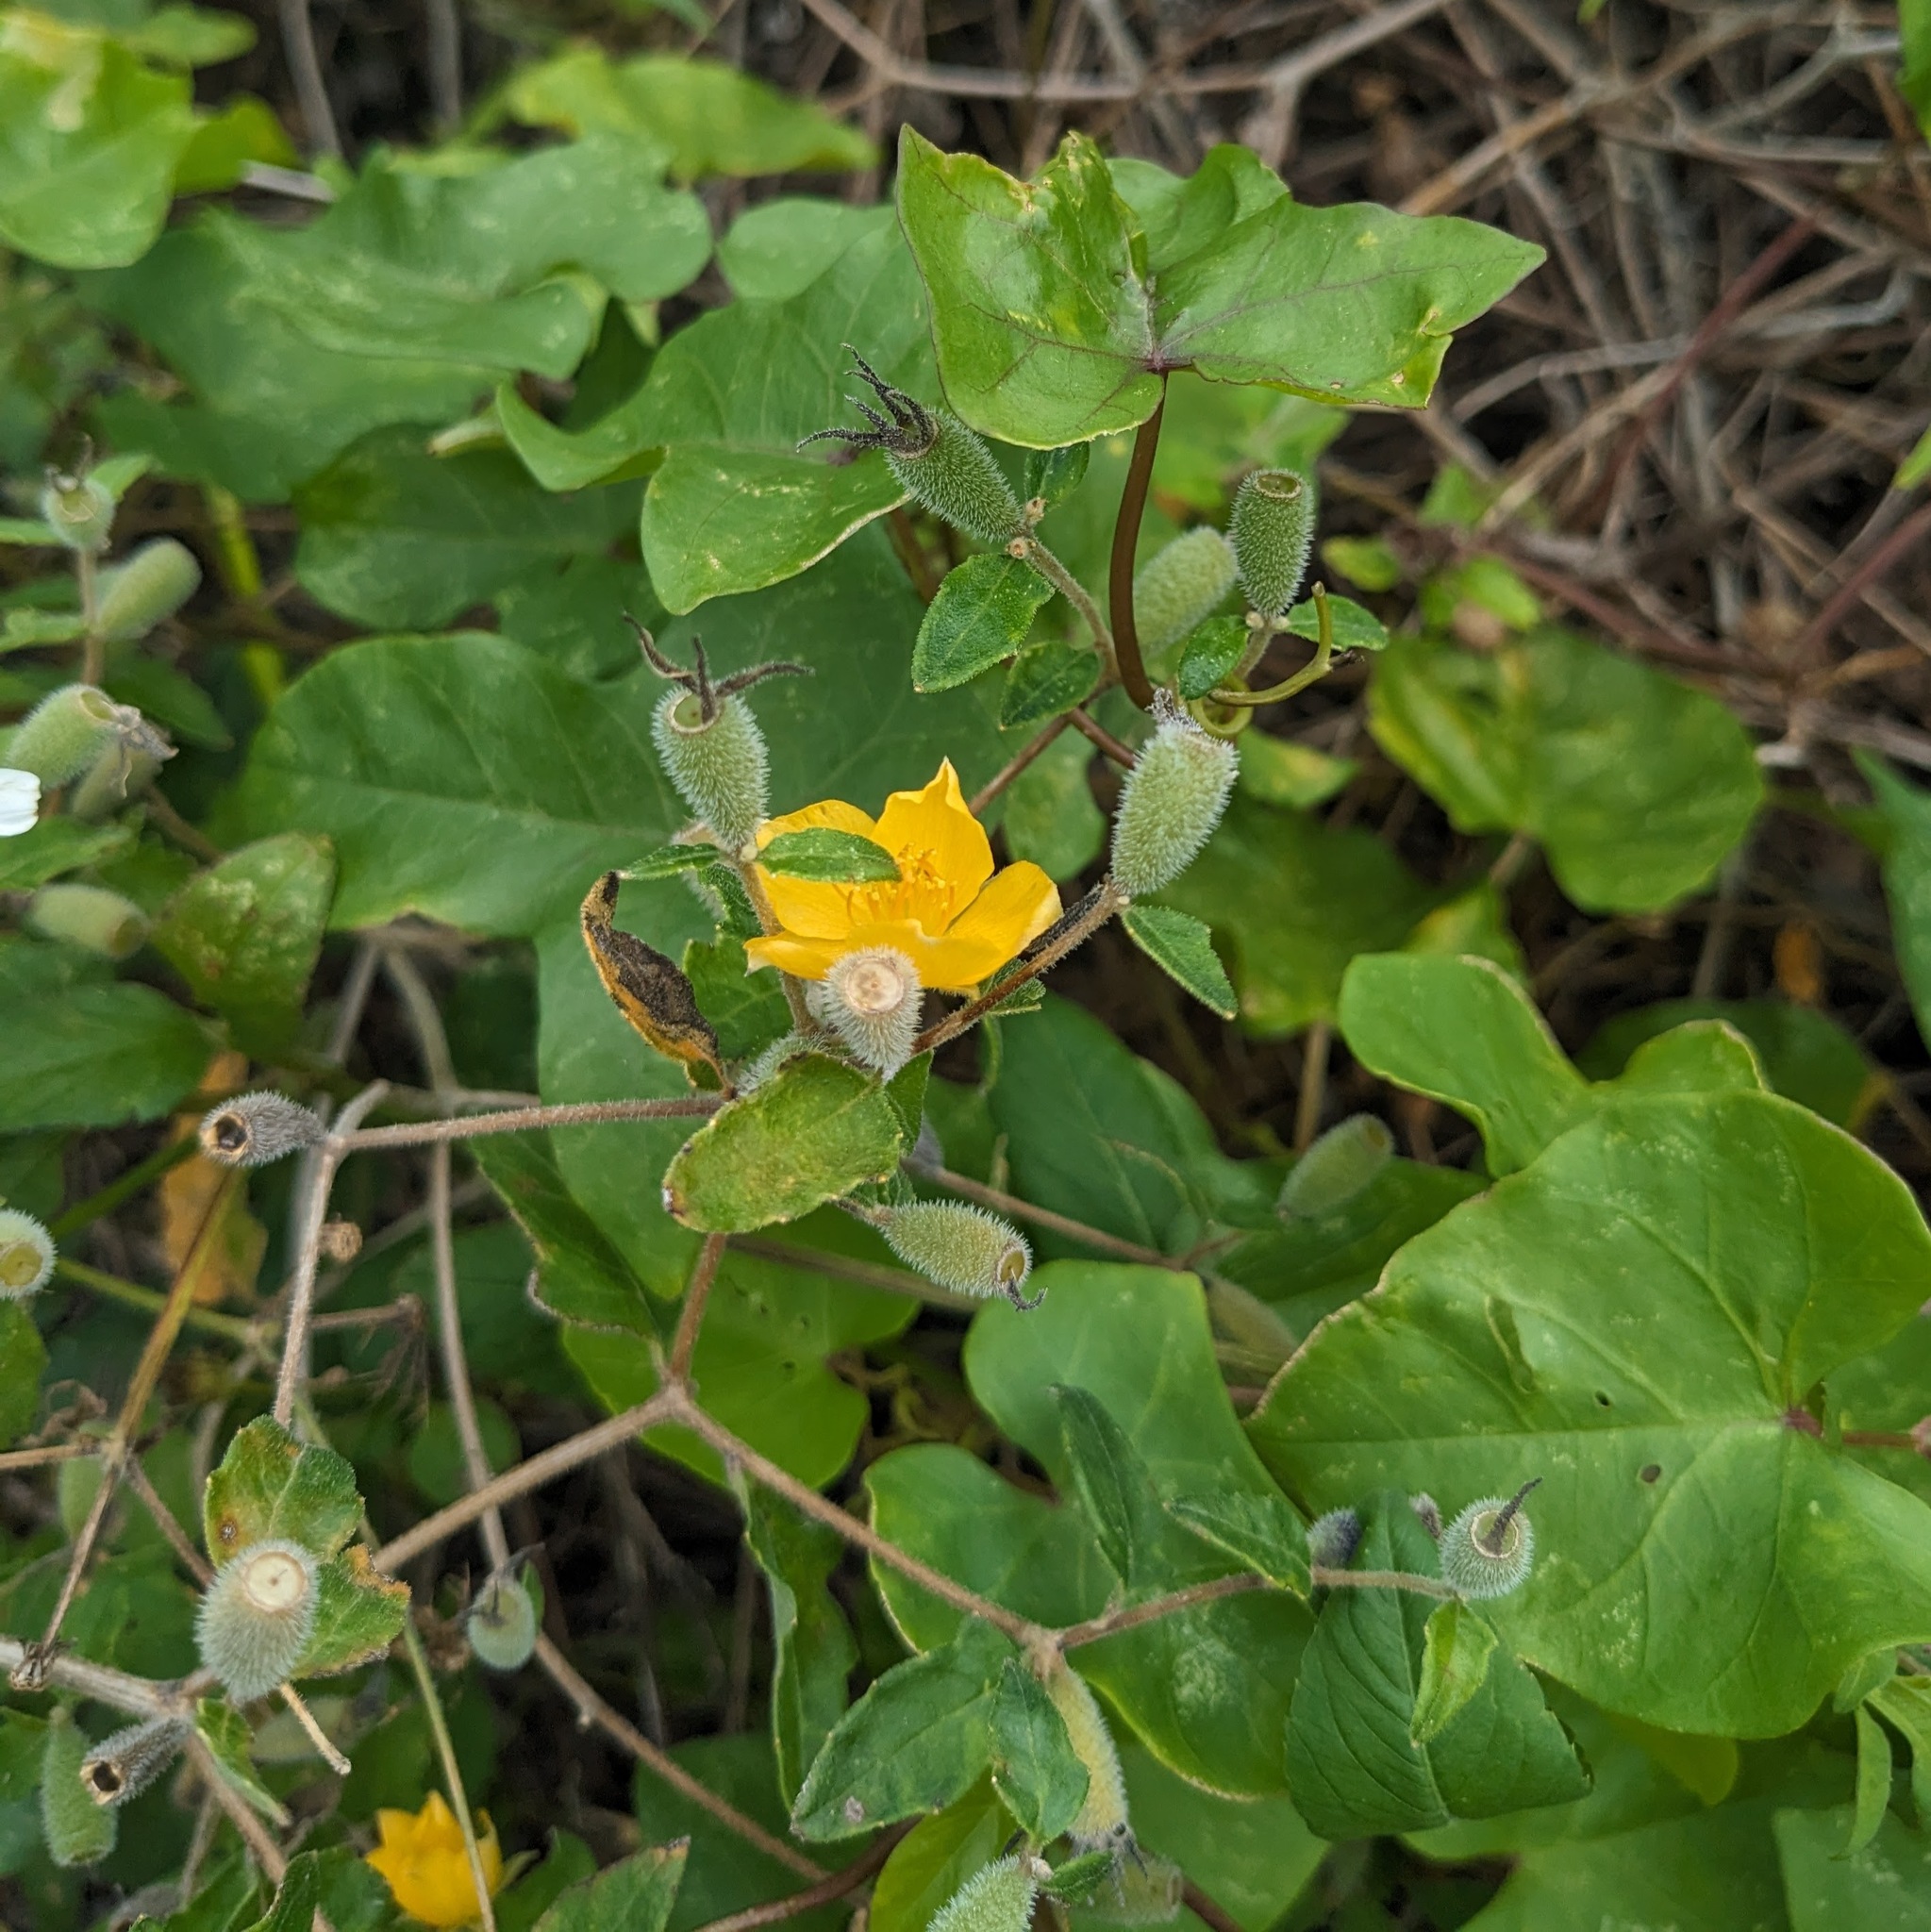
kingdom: Plantae
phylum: Tracheophyta
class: Magnoliopsida
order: Cornales
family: Loasaceae
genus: Mentzelia
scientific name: Mentzelia floridana
